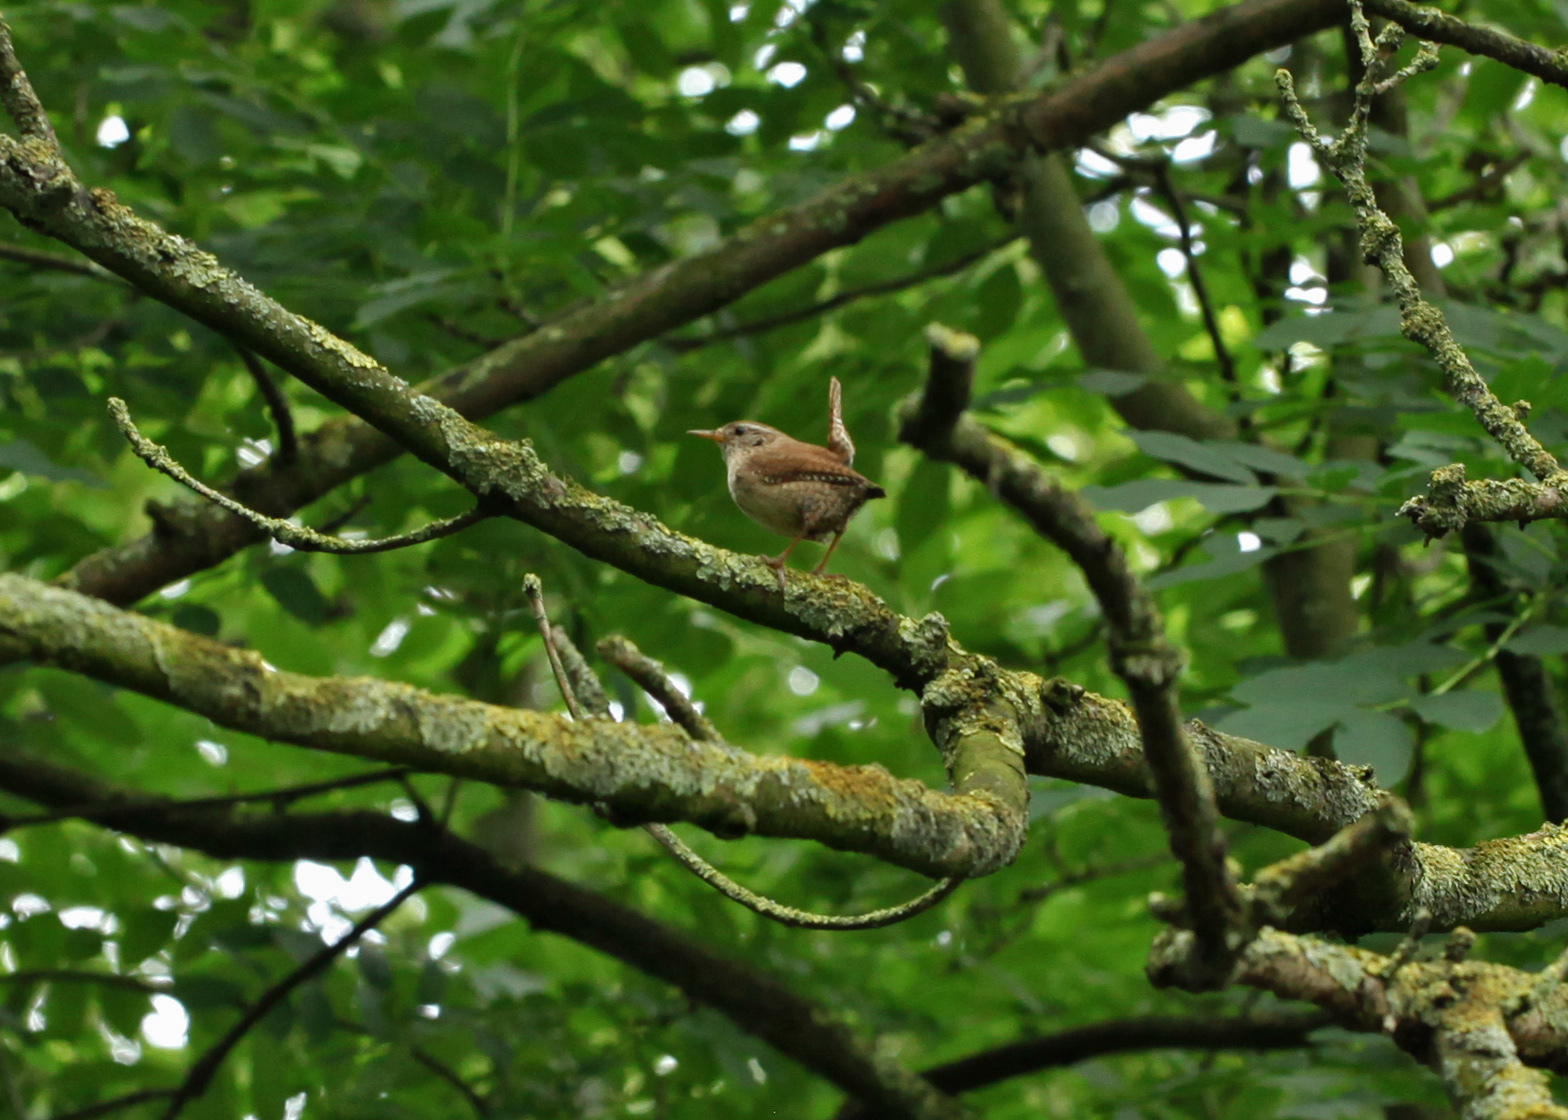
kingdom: Animalia
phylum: Chordata
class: Aves
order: Passeriformes
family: Troglodytidae
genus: Troglodytes
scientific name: Troglodytes troglodytes
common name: Eurasian wren
